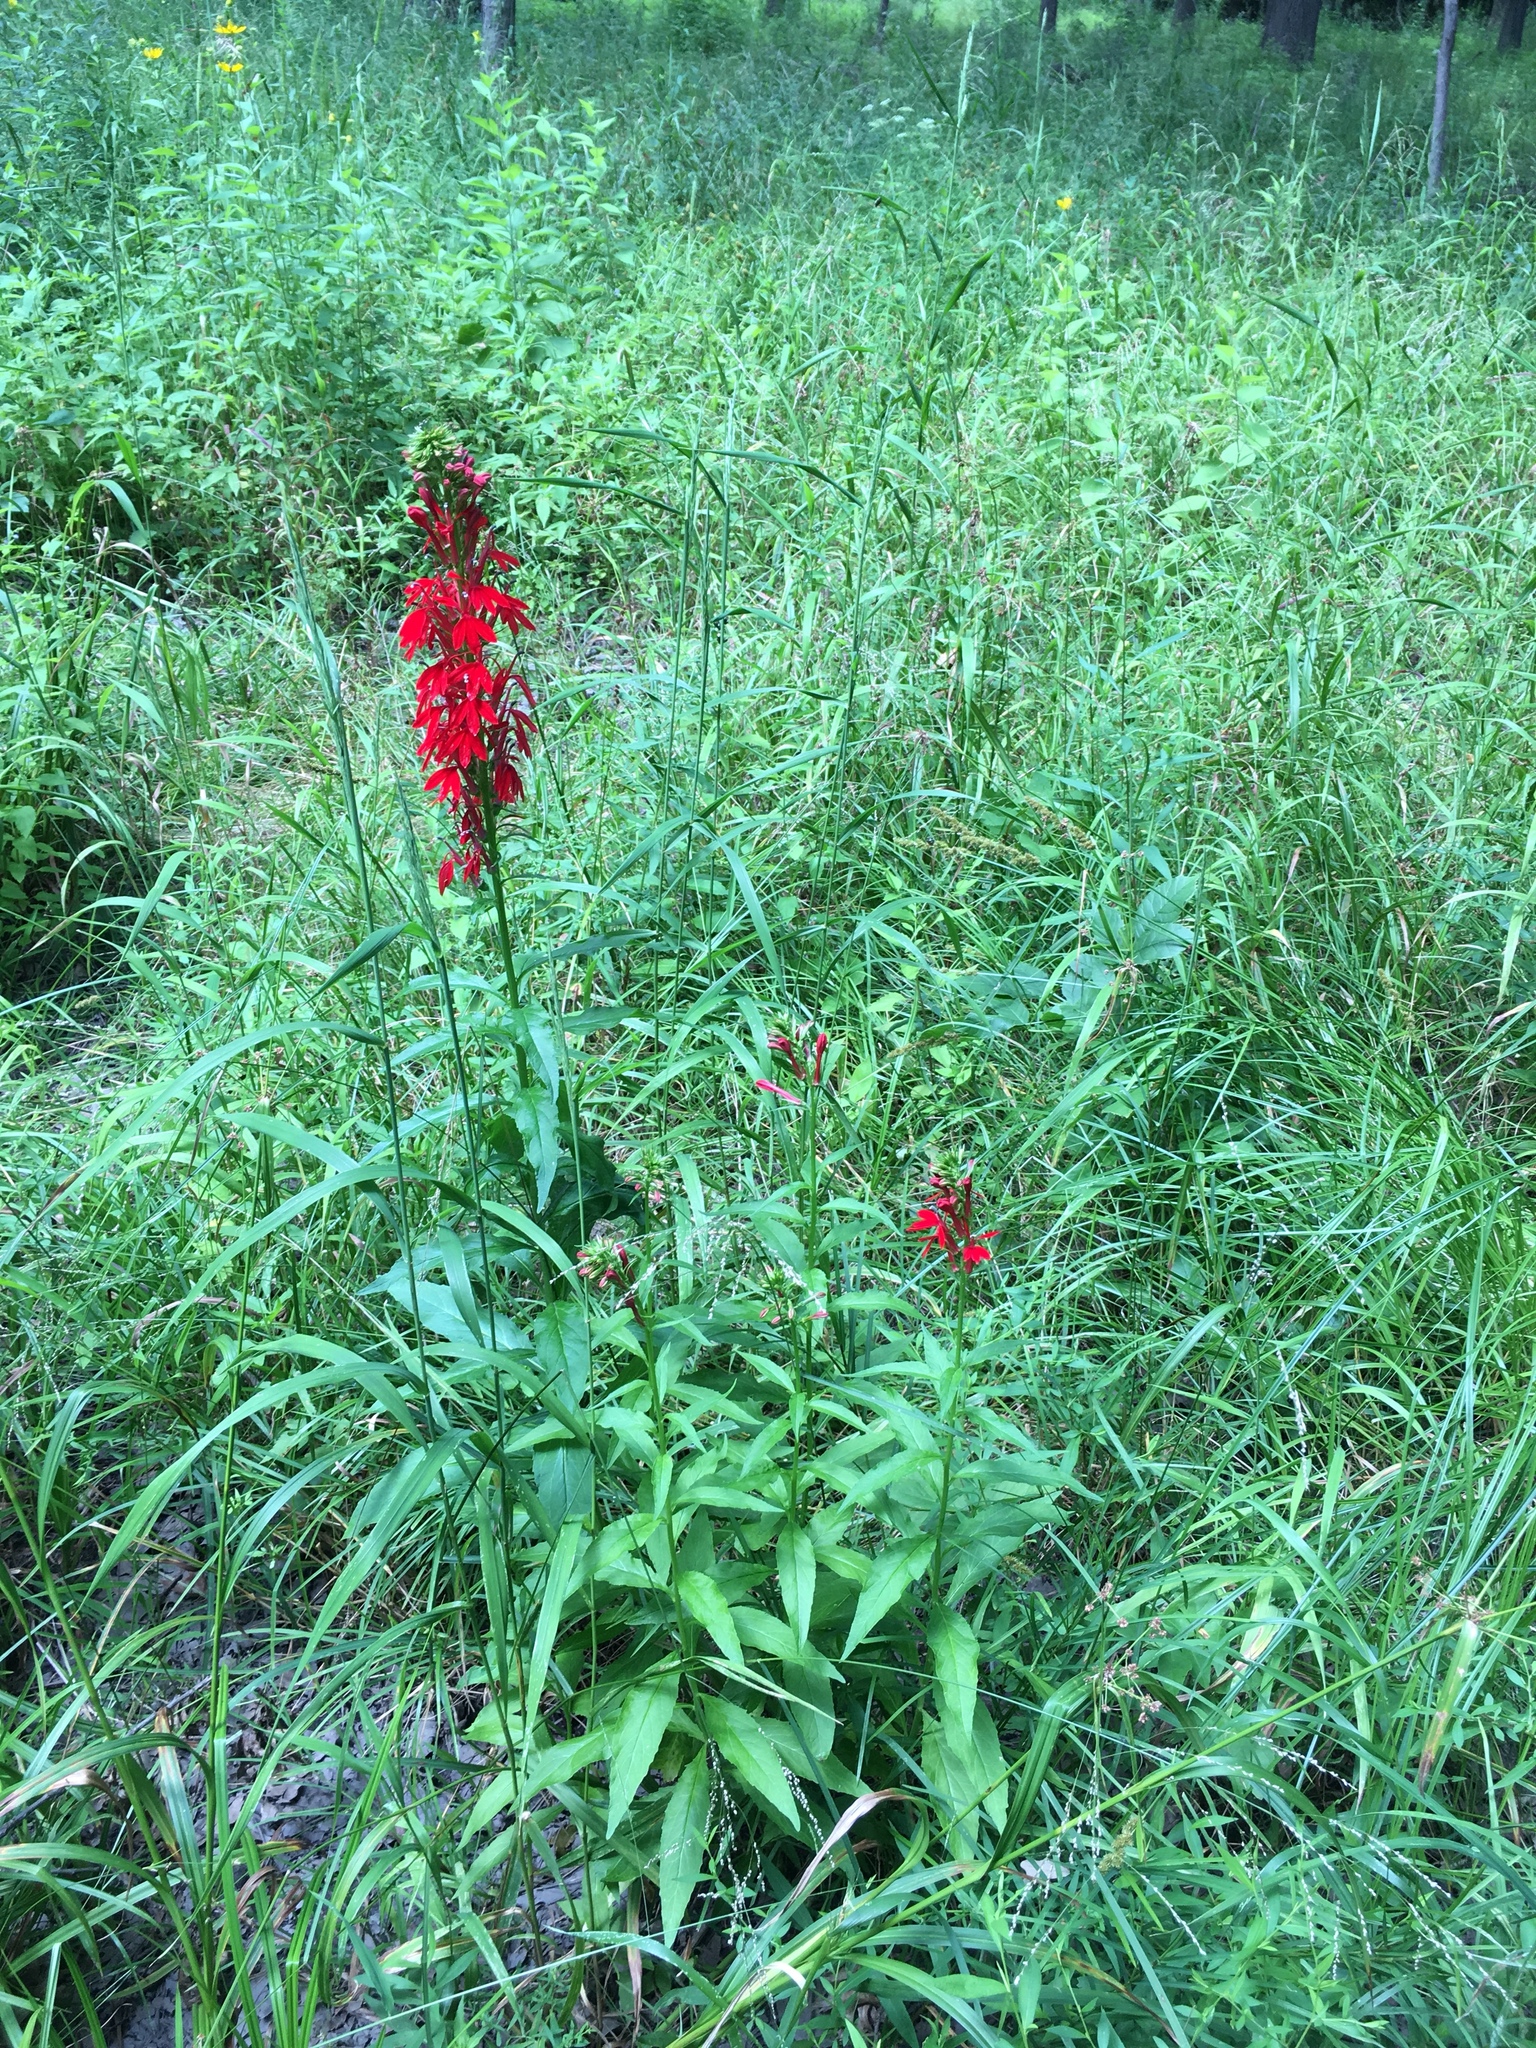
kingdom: Plantae
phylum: Tracheophyta
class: Magnoliopsida
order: Asterales
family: Campanulaceae
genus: Lobelia
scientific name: Lobelia cardinalis
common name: Cardinal flower
